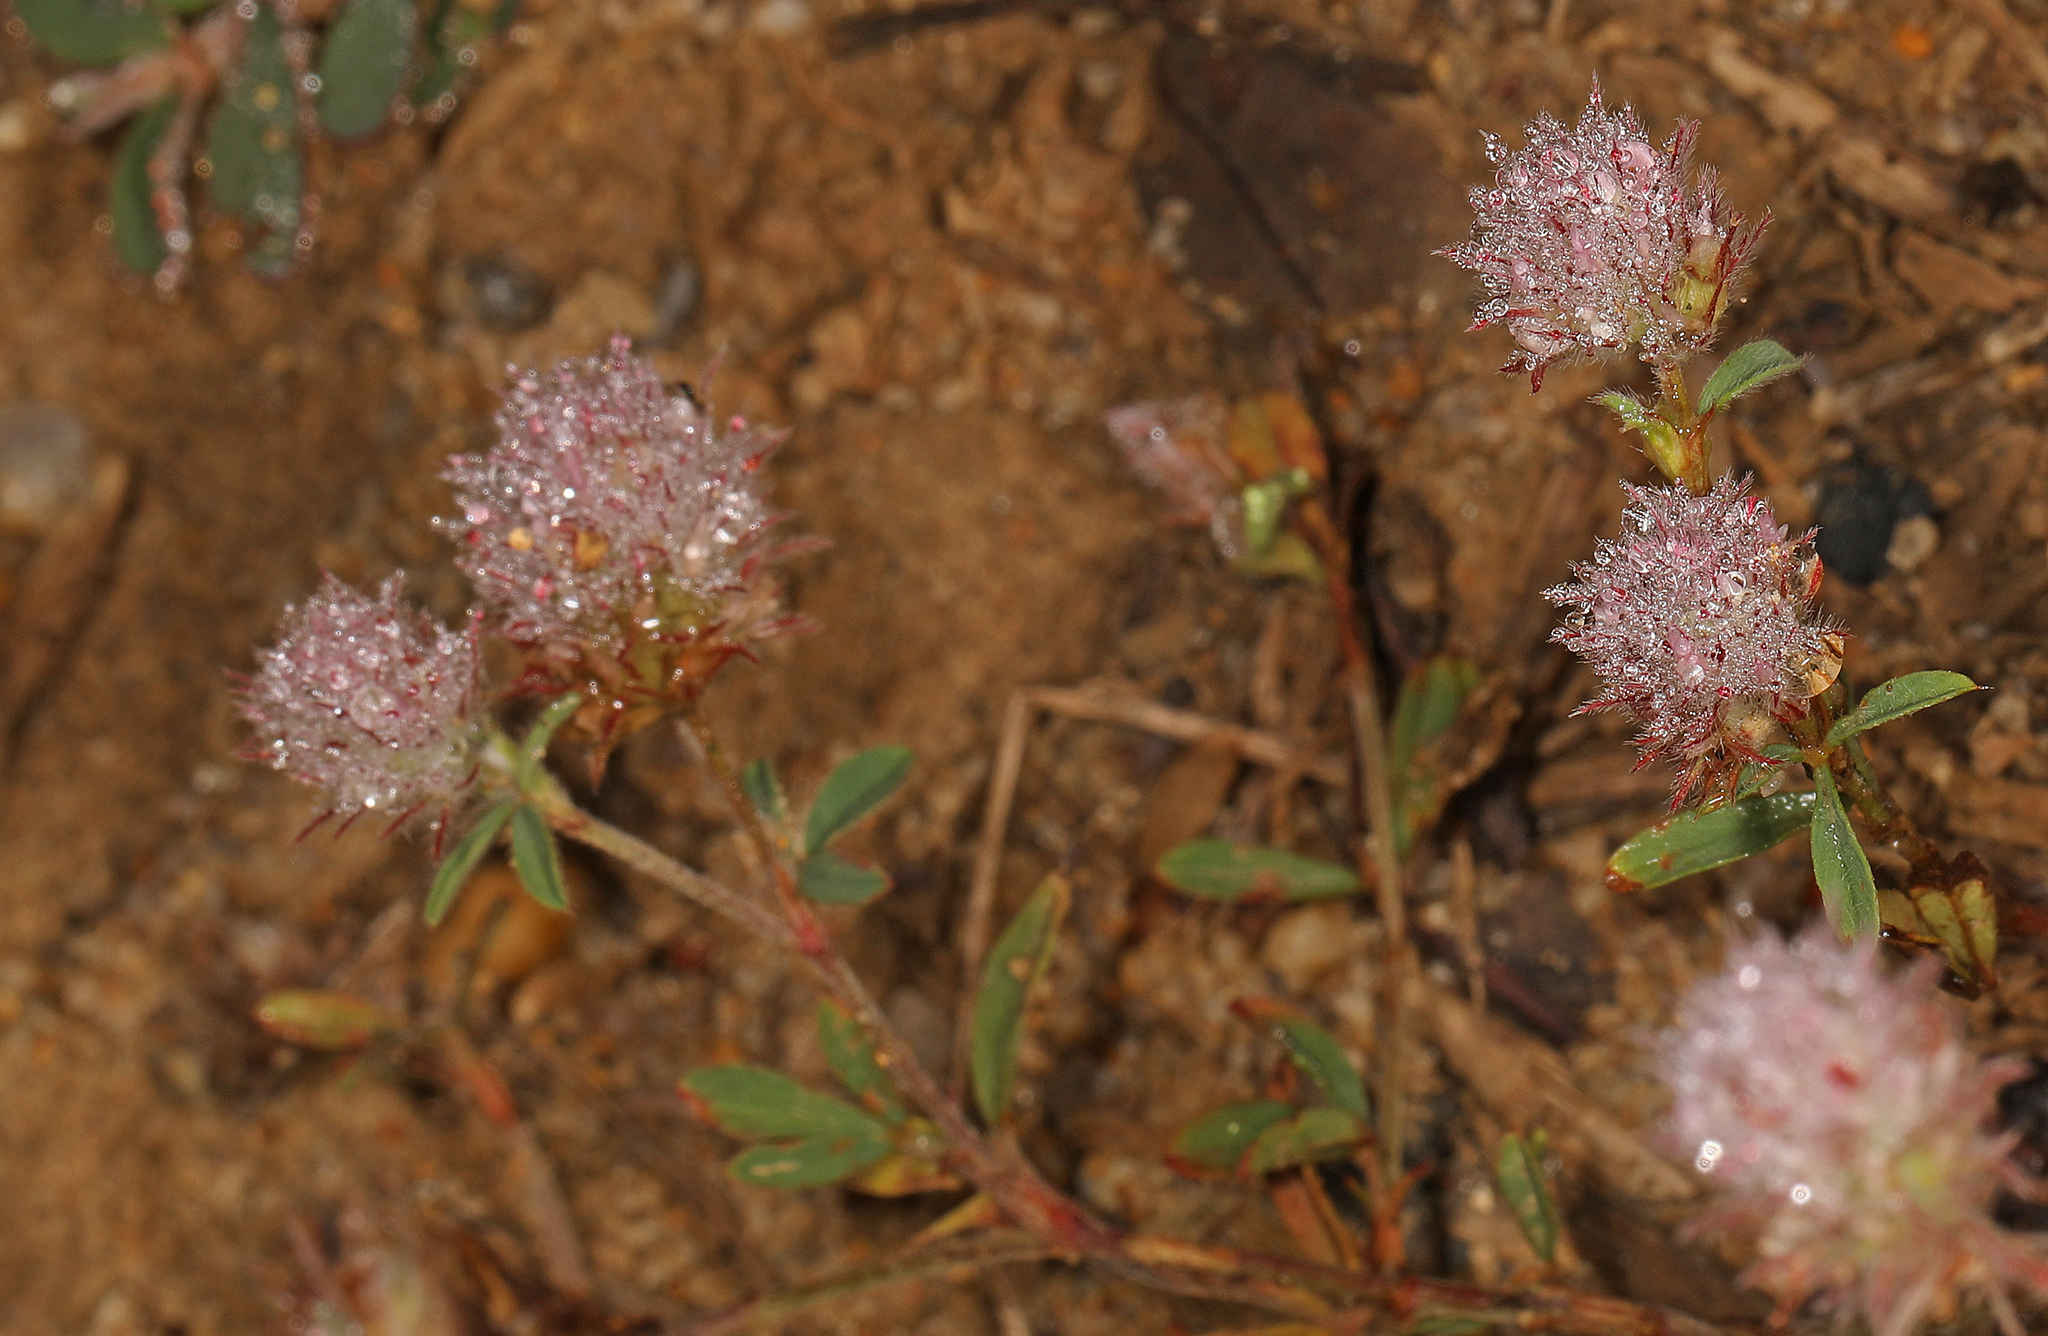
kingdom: Plantae
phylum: Tracheophyta
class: Magnoliopsida
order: Fabales
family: Fabaceae
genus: Trifolium
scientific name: Trifolium arvense
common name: Hare's-foot clover
